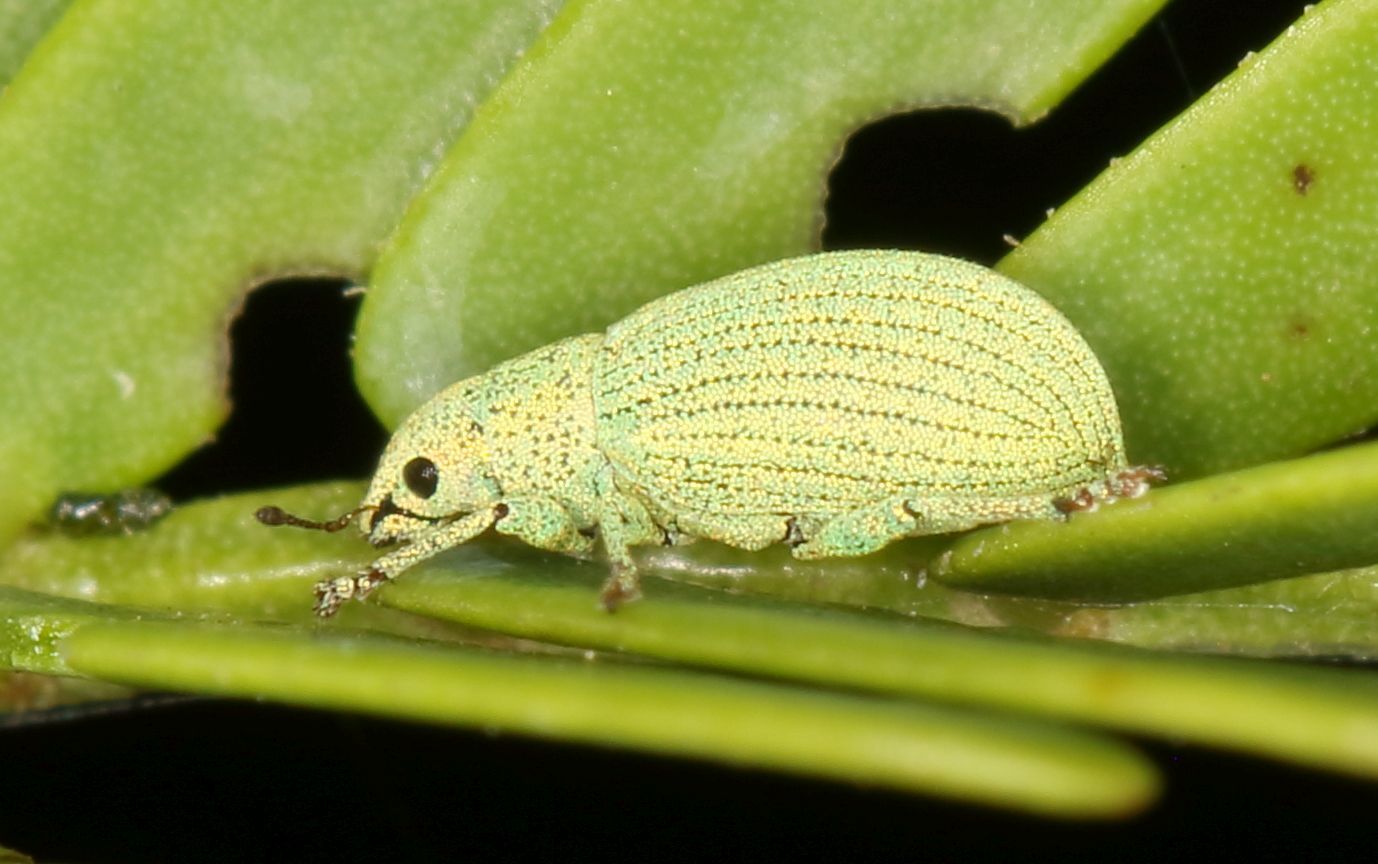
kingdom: Animalia
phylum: Arthropoda
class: Insecta
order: Coleoptera
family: Curculionidae
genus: Polydrusus
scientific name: Polydrusus zumpti
